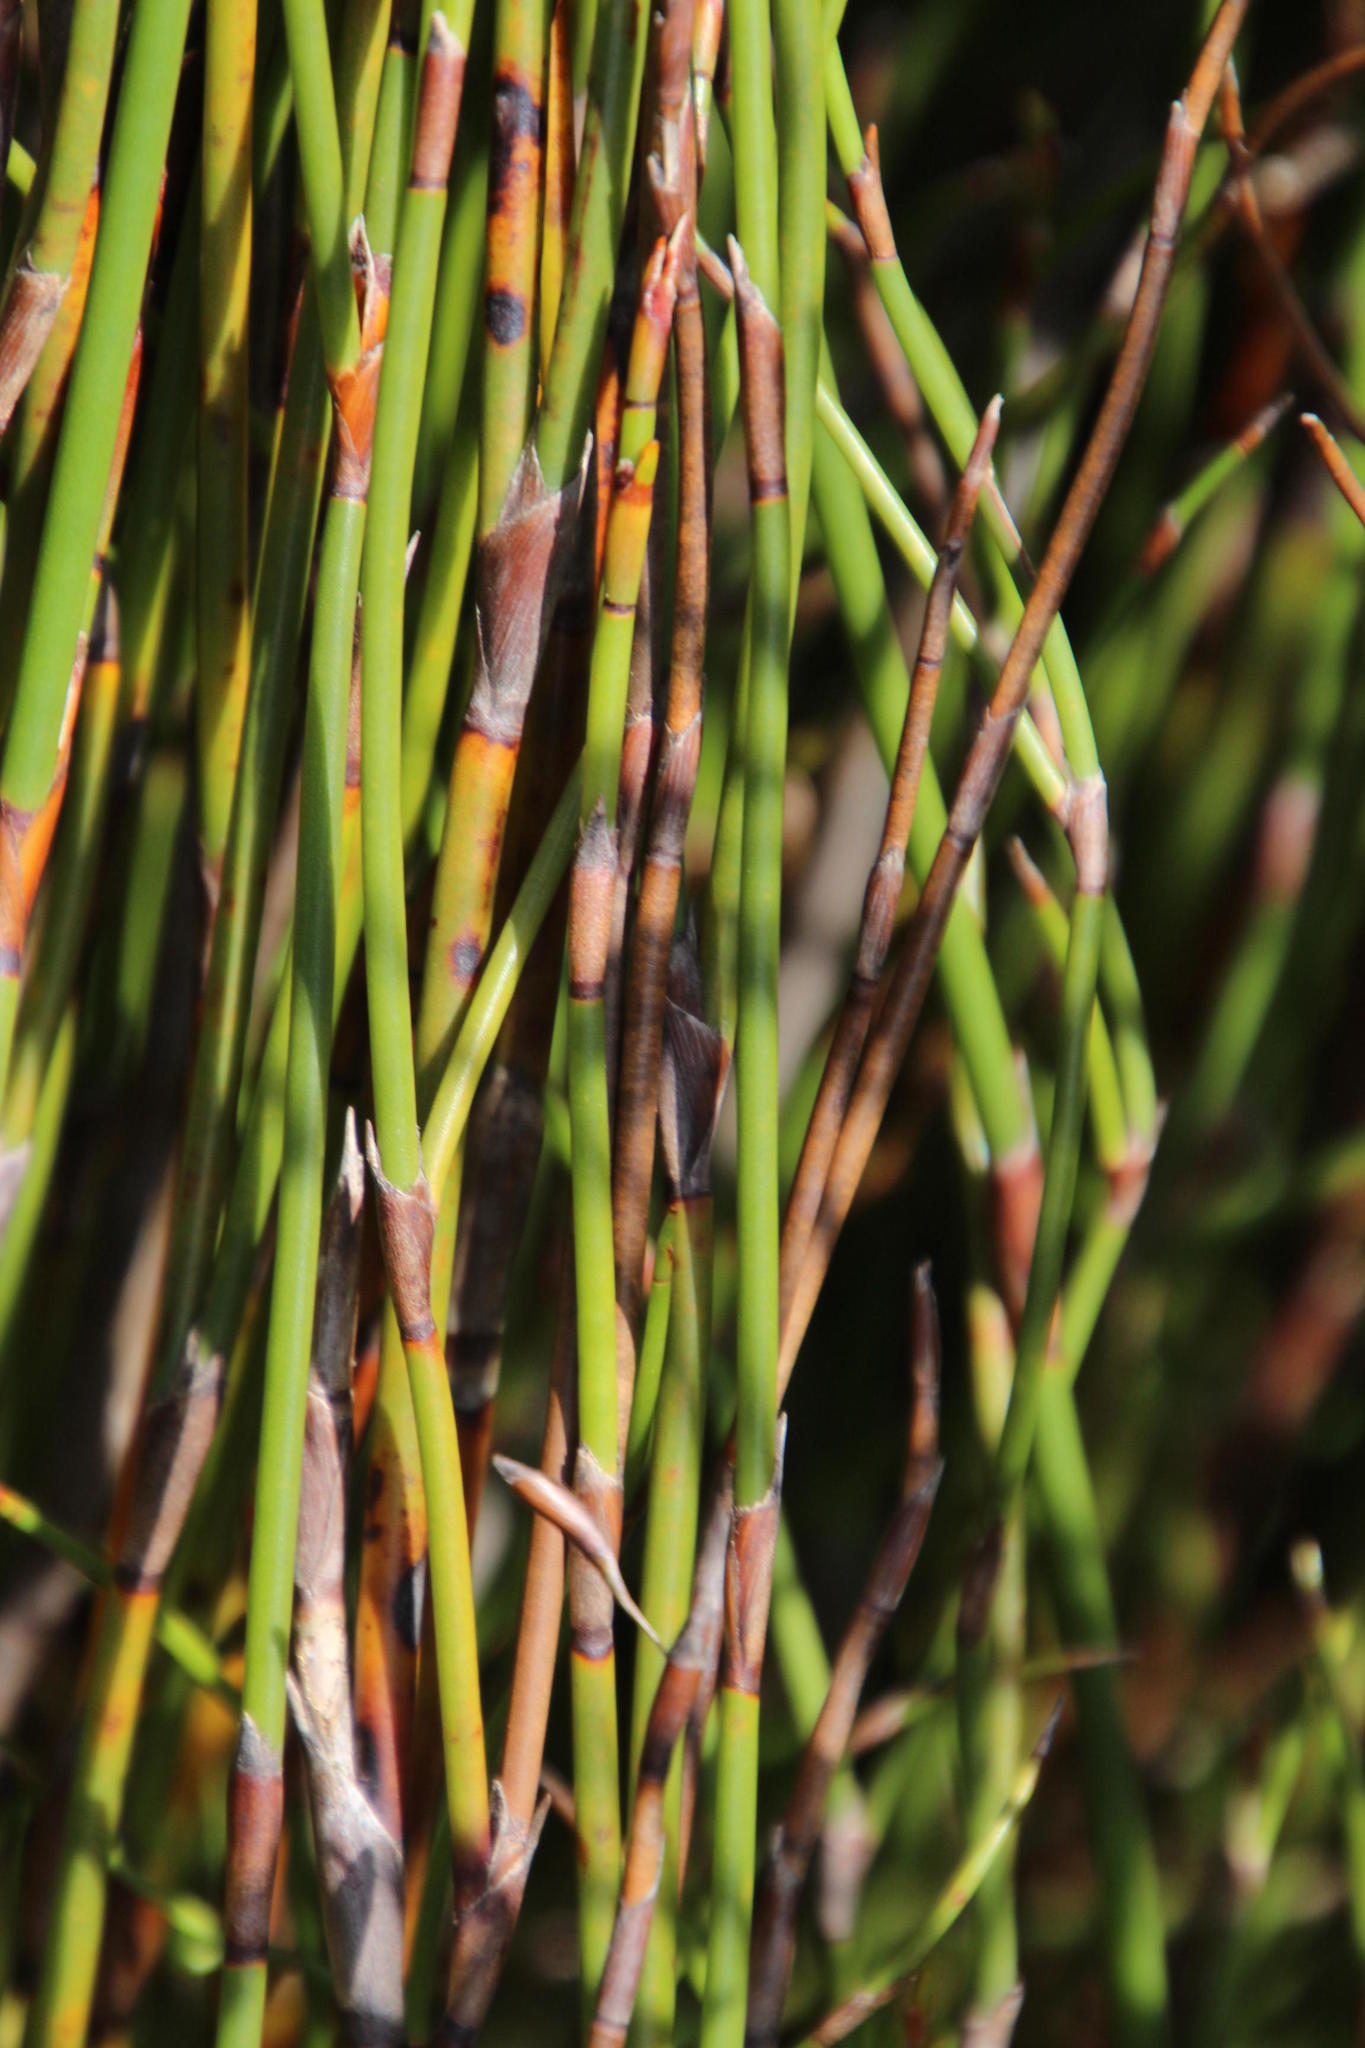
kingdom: Plantae
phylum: Tracheophyta
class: Liliopsida
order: Poales
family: Restionaceae
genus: Restio
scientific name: Restio egregius
